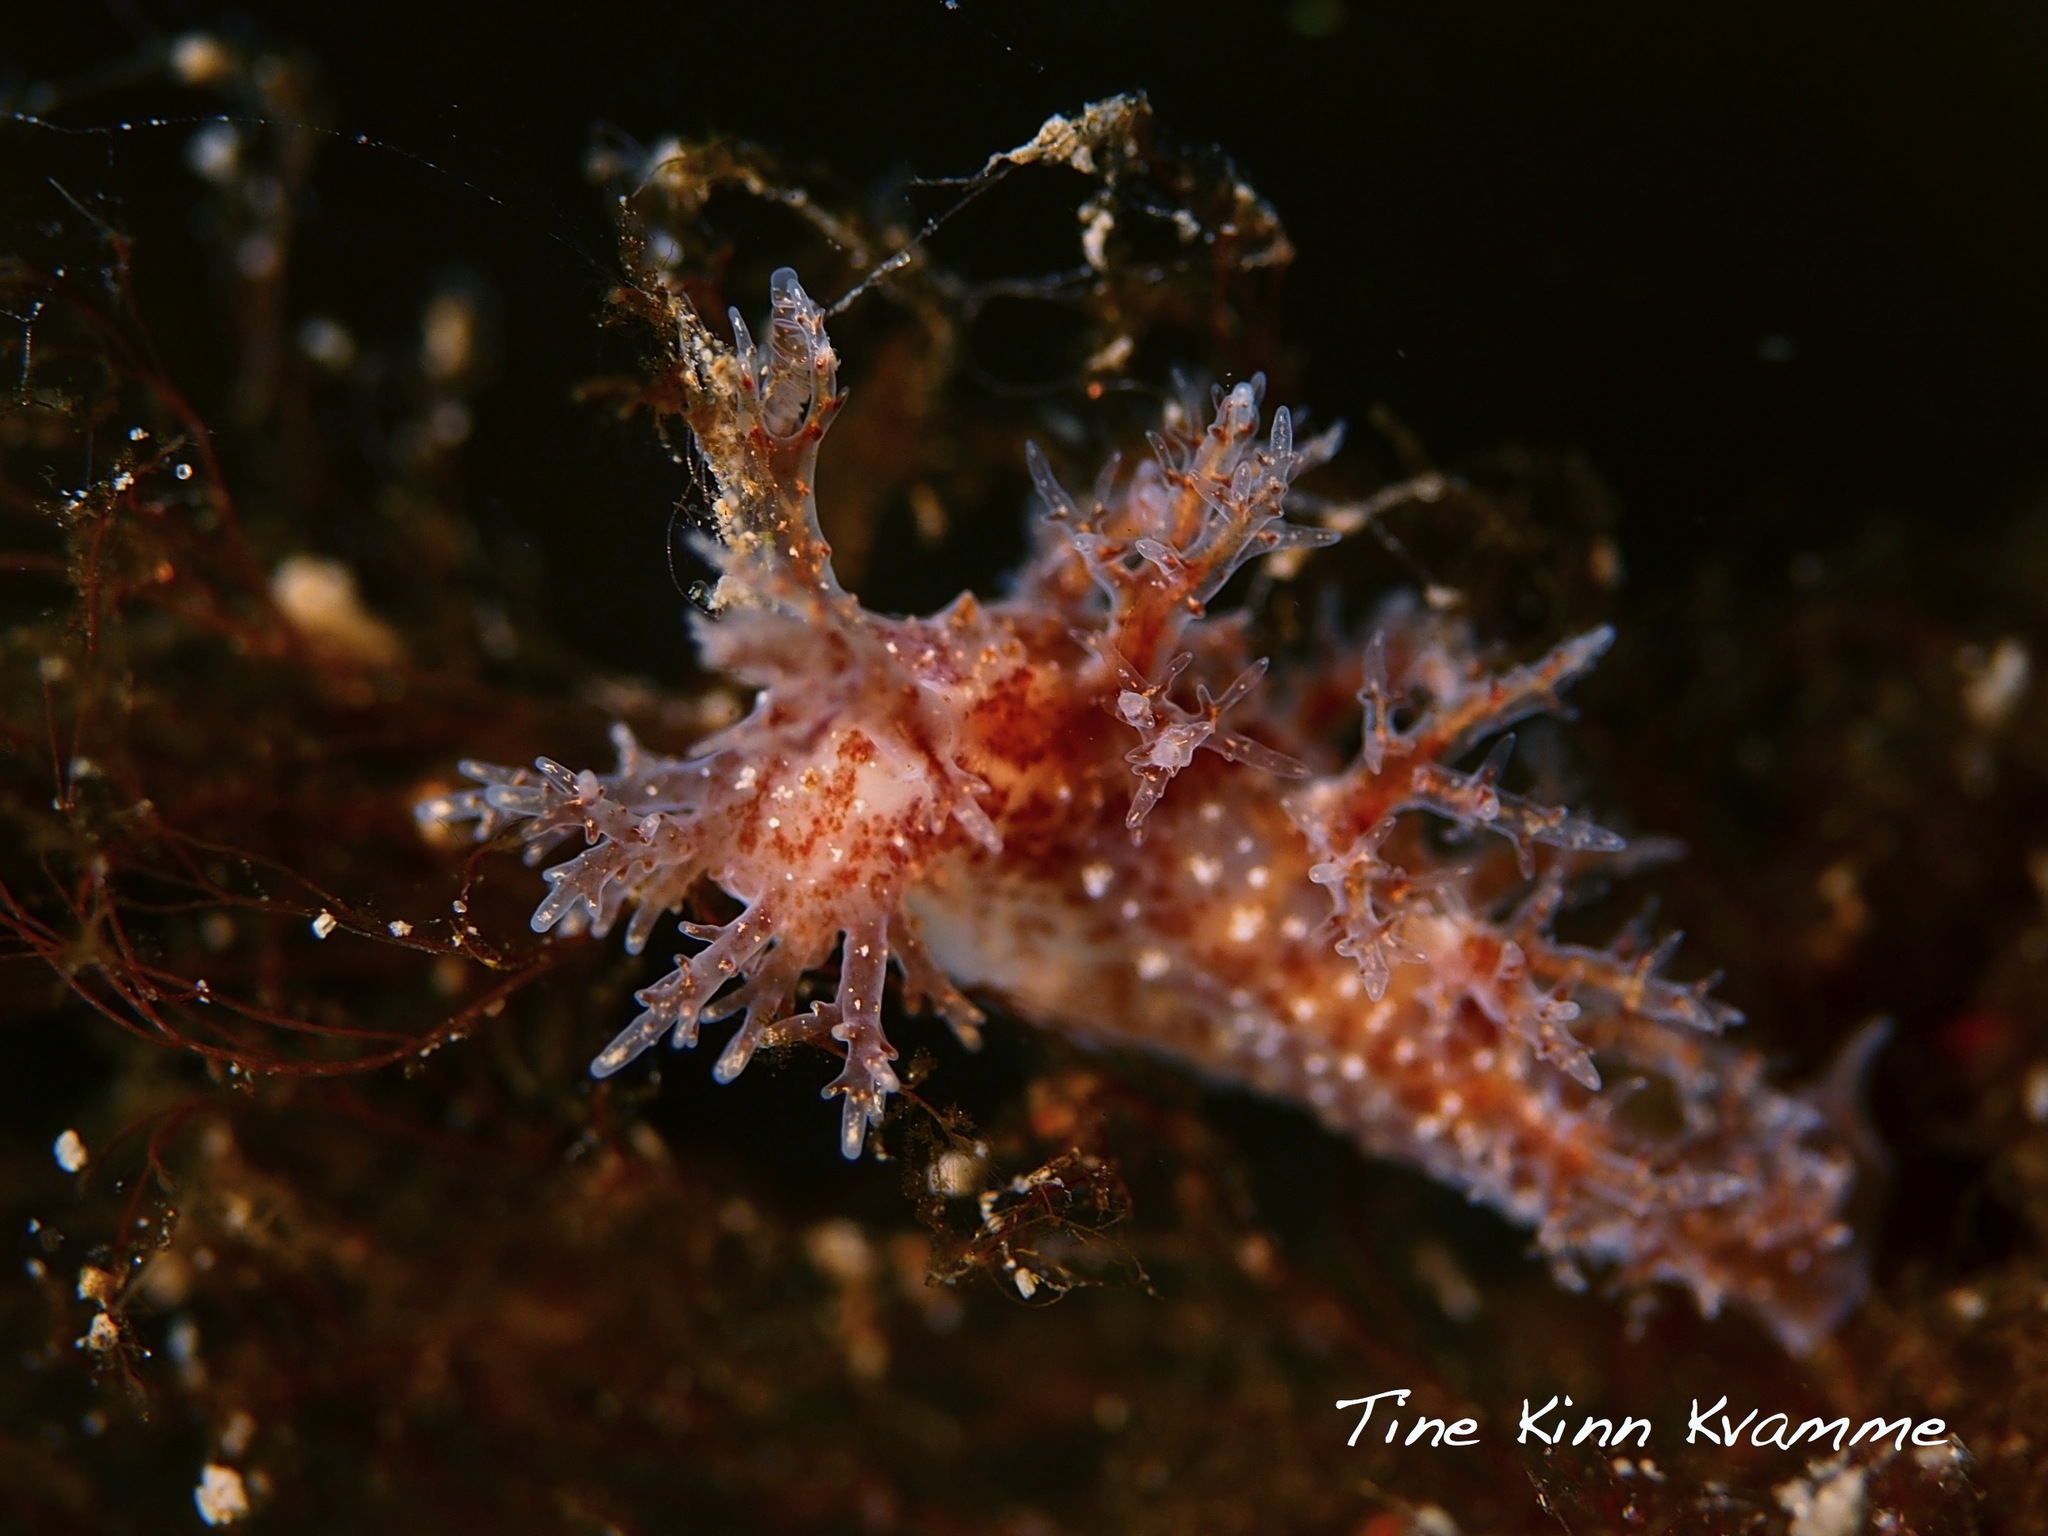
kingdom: Animalia
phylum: Mollusca
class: Gastropoda
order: Nudibranchia
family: Dendronotidae
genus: Dendronotus
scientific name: Dendronotus frondosus
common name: Bushy-backed nudibranch
